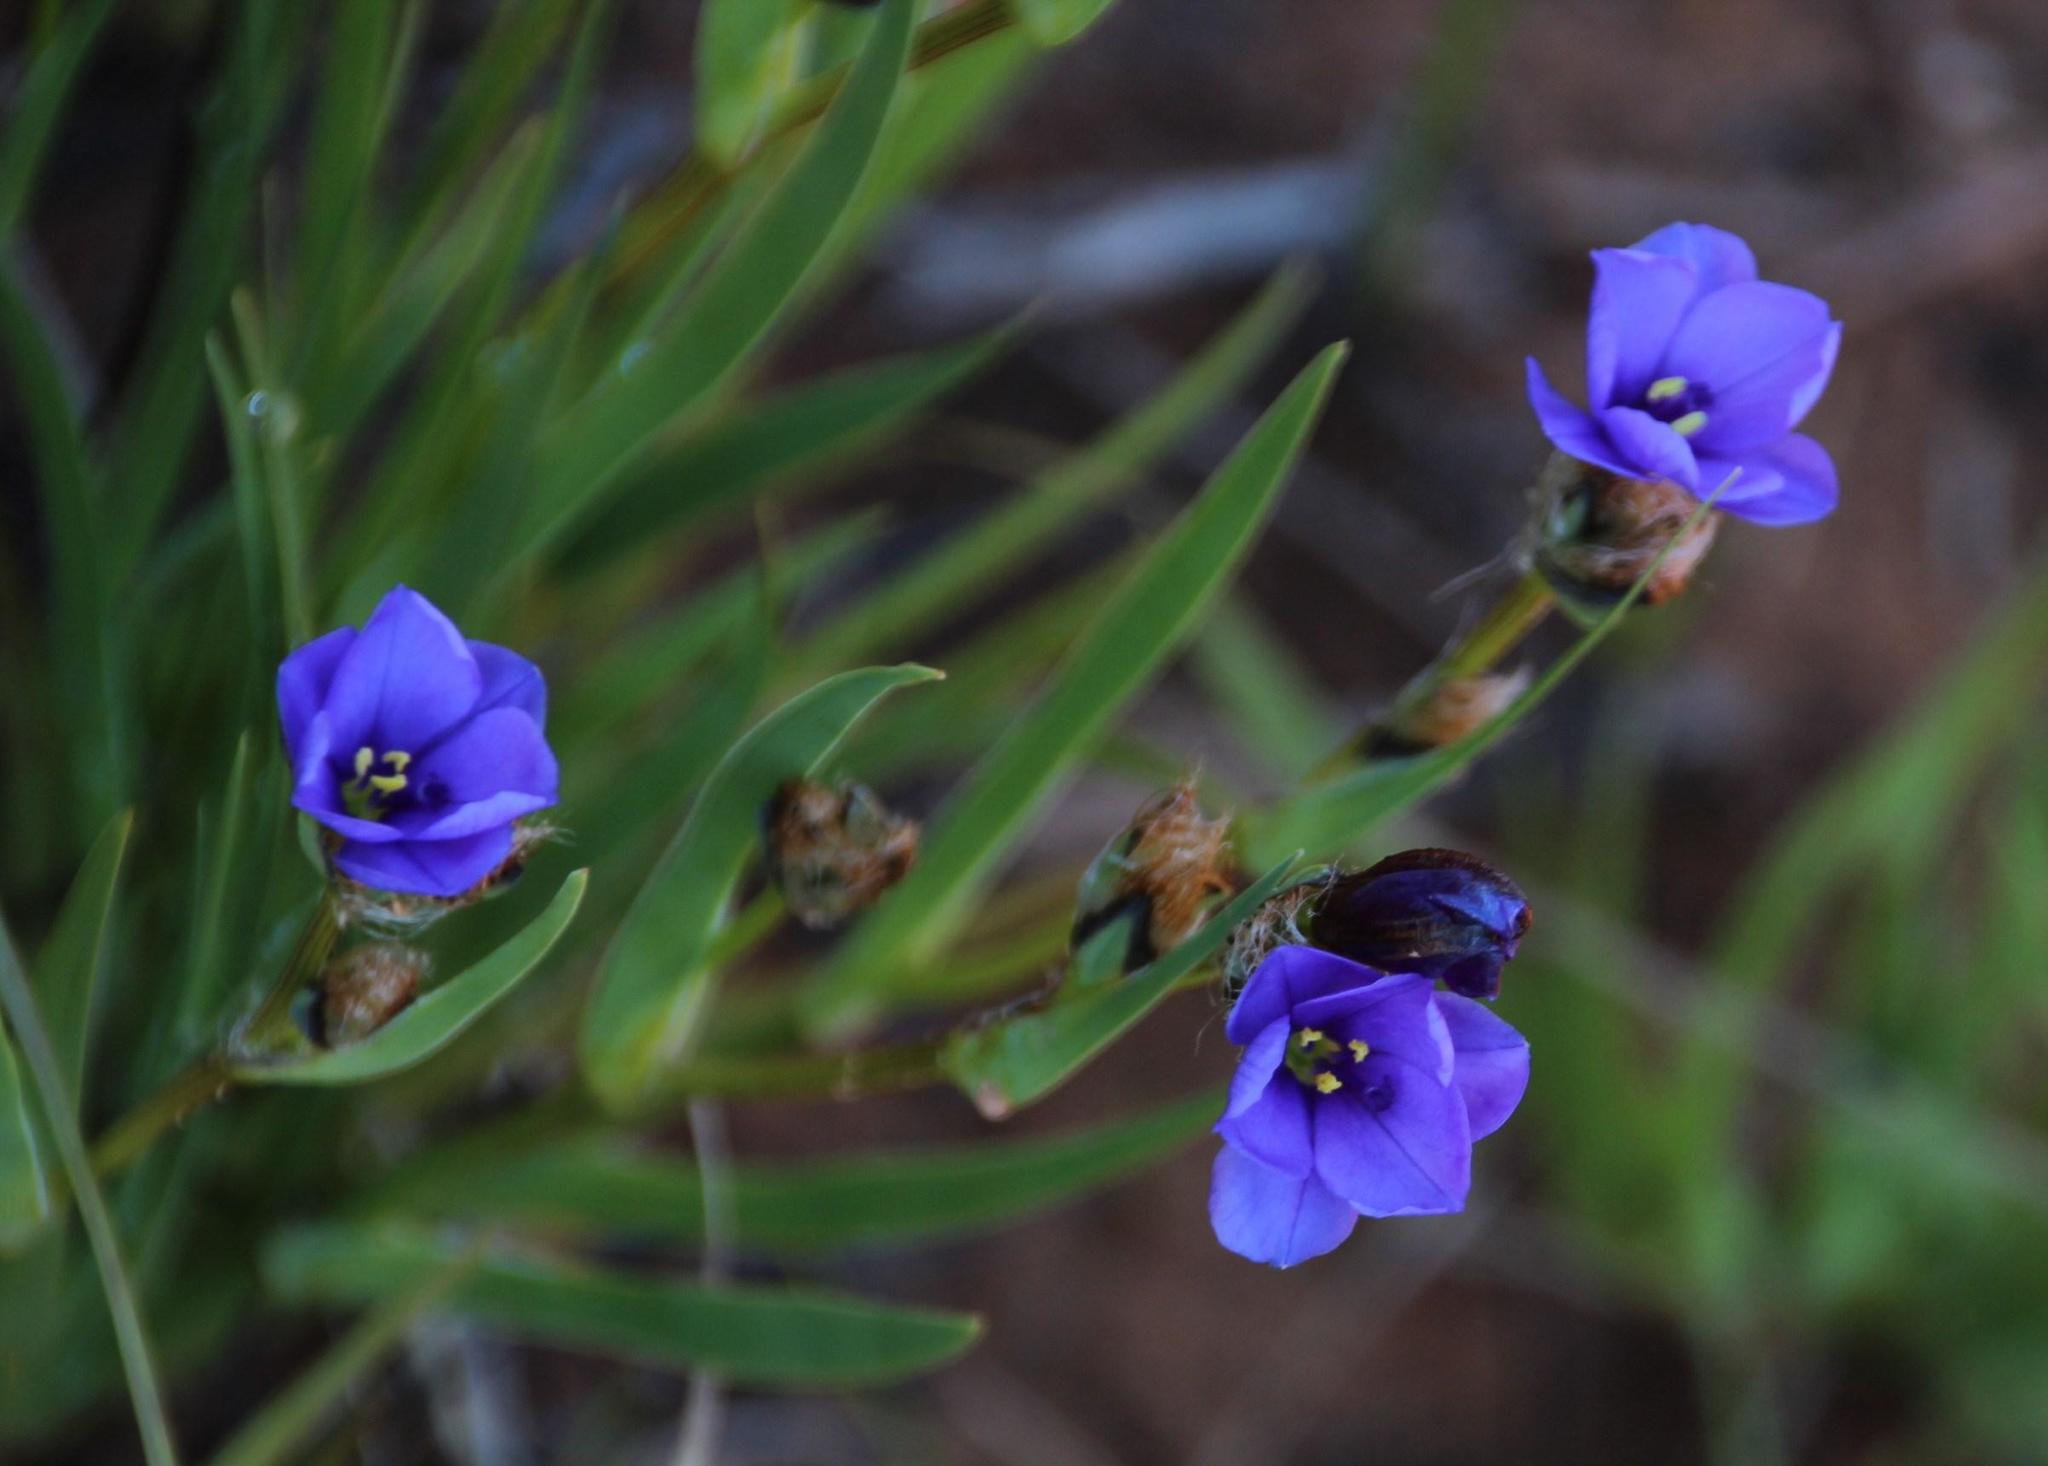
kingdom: Plantae
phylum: Tracheophyta
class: Liliopsida
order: Asparagales
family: Iridaceae
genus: Aristea
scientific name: Aristea africana
